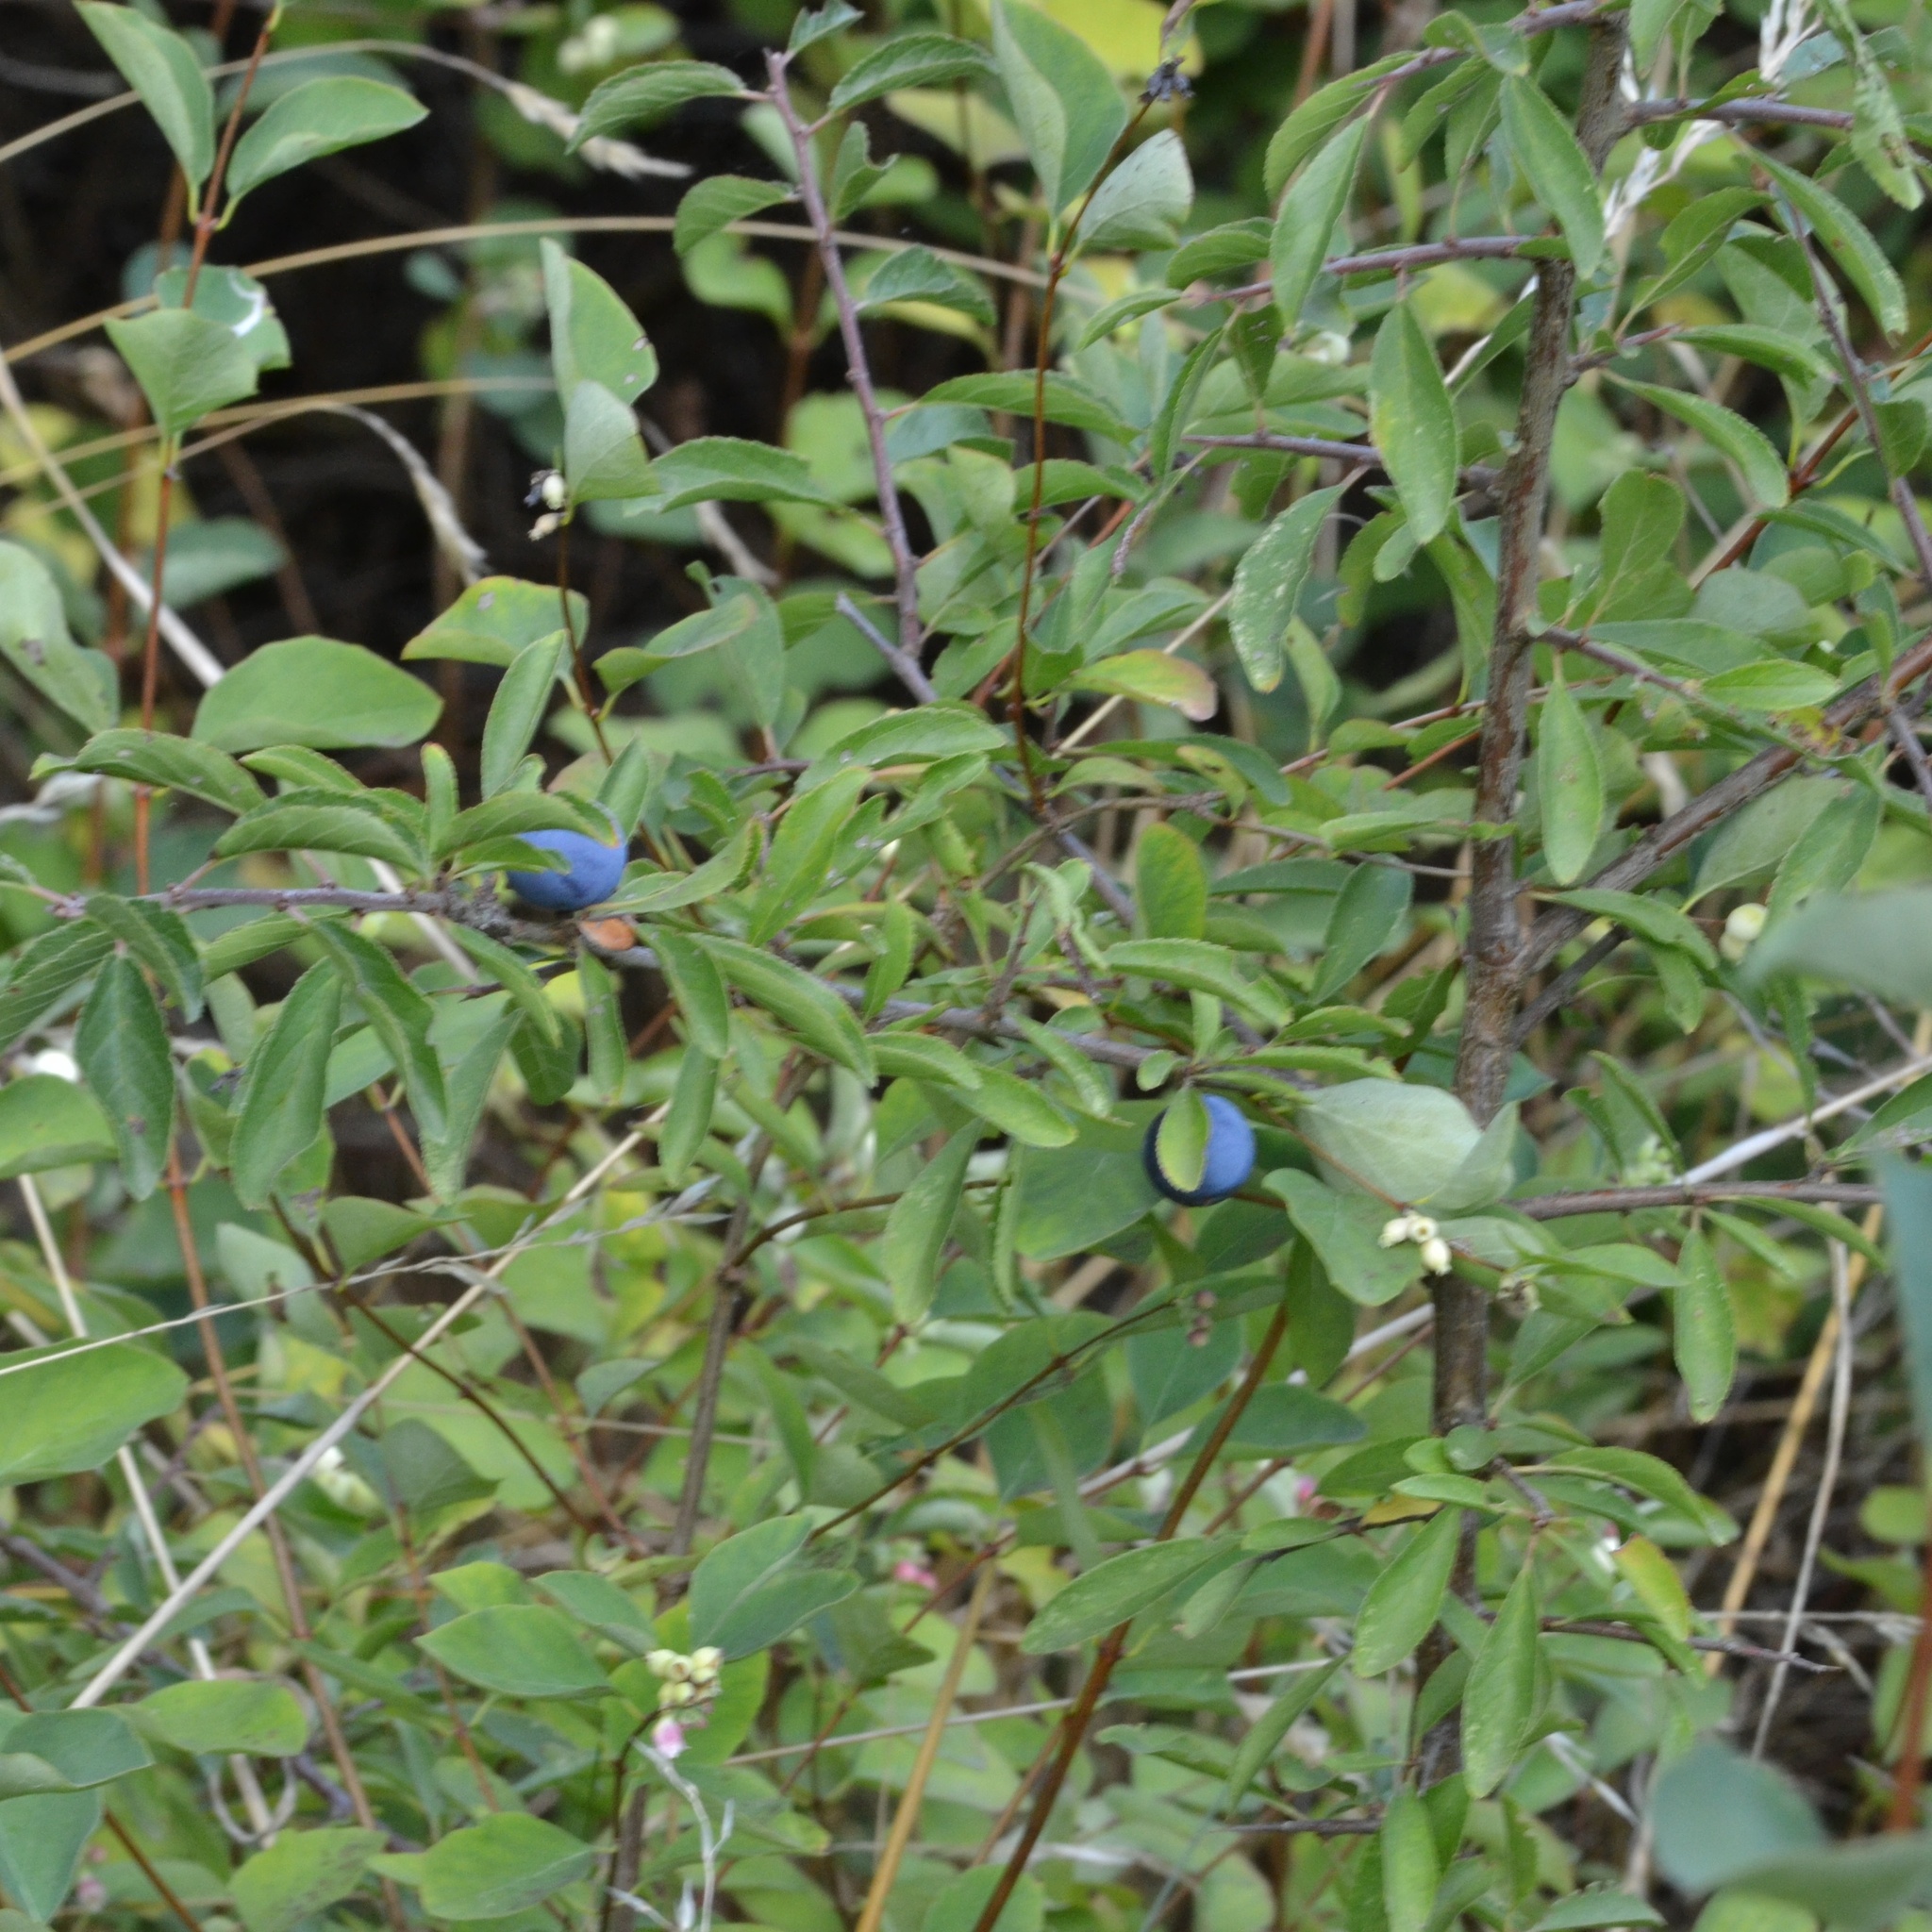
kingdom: Plantae
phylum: Tracheophyta
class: Magnoliopsida
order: Rosales
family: Rosaceae
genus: Prunus
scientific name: Prunus spinosa
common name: Blackthorn
